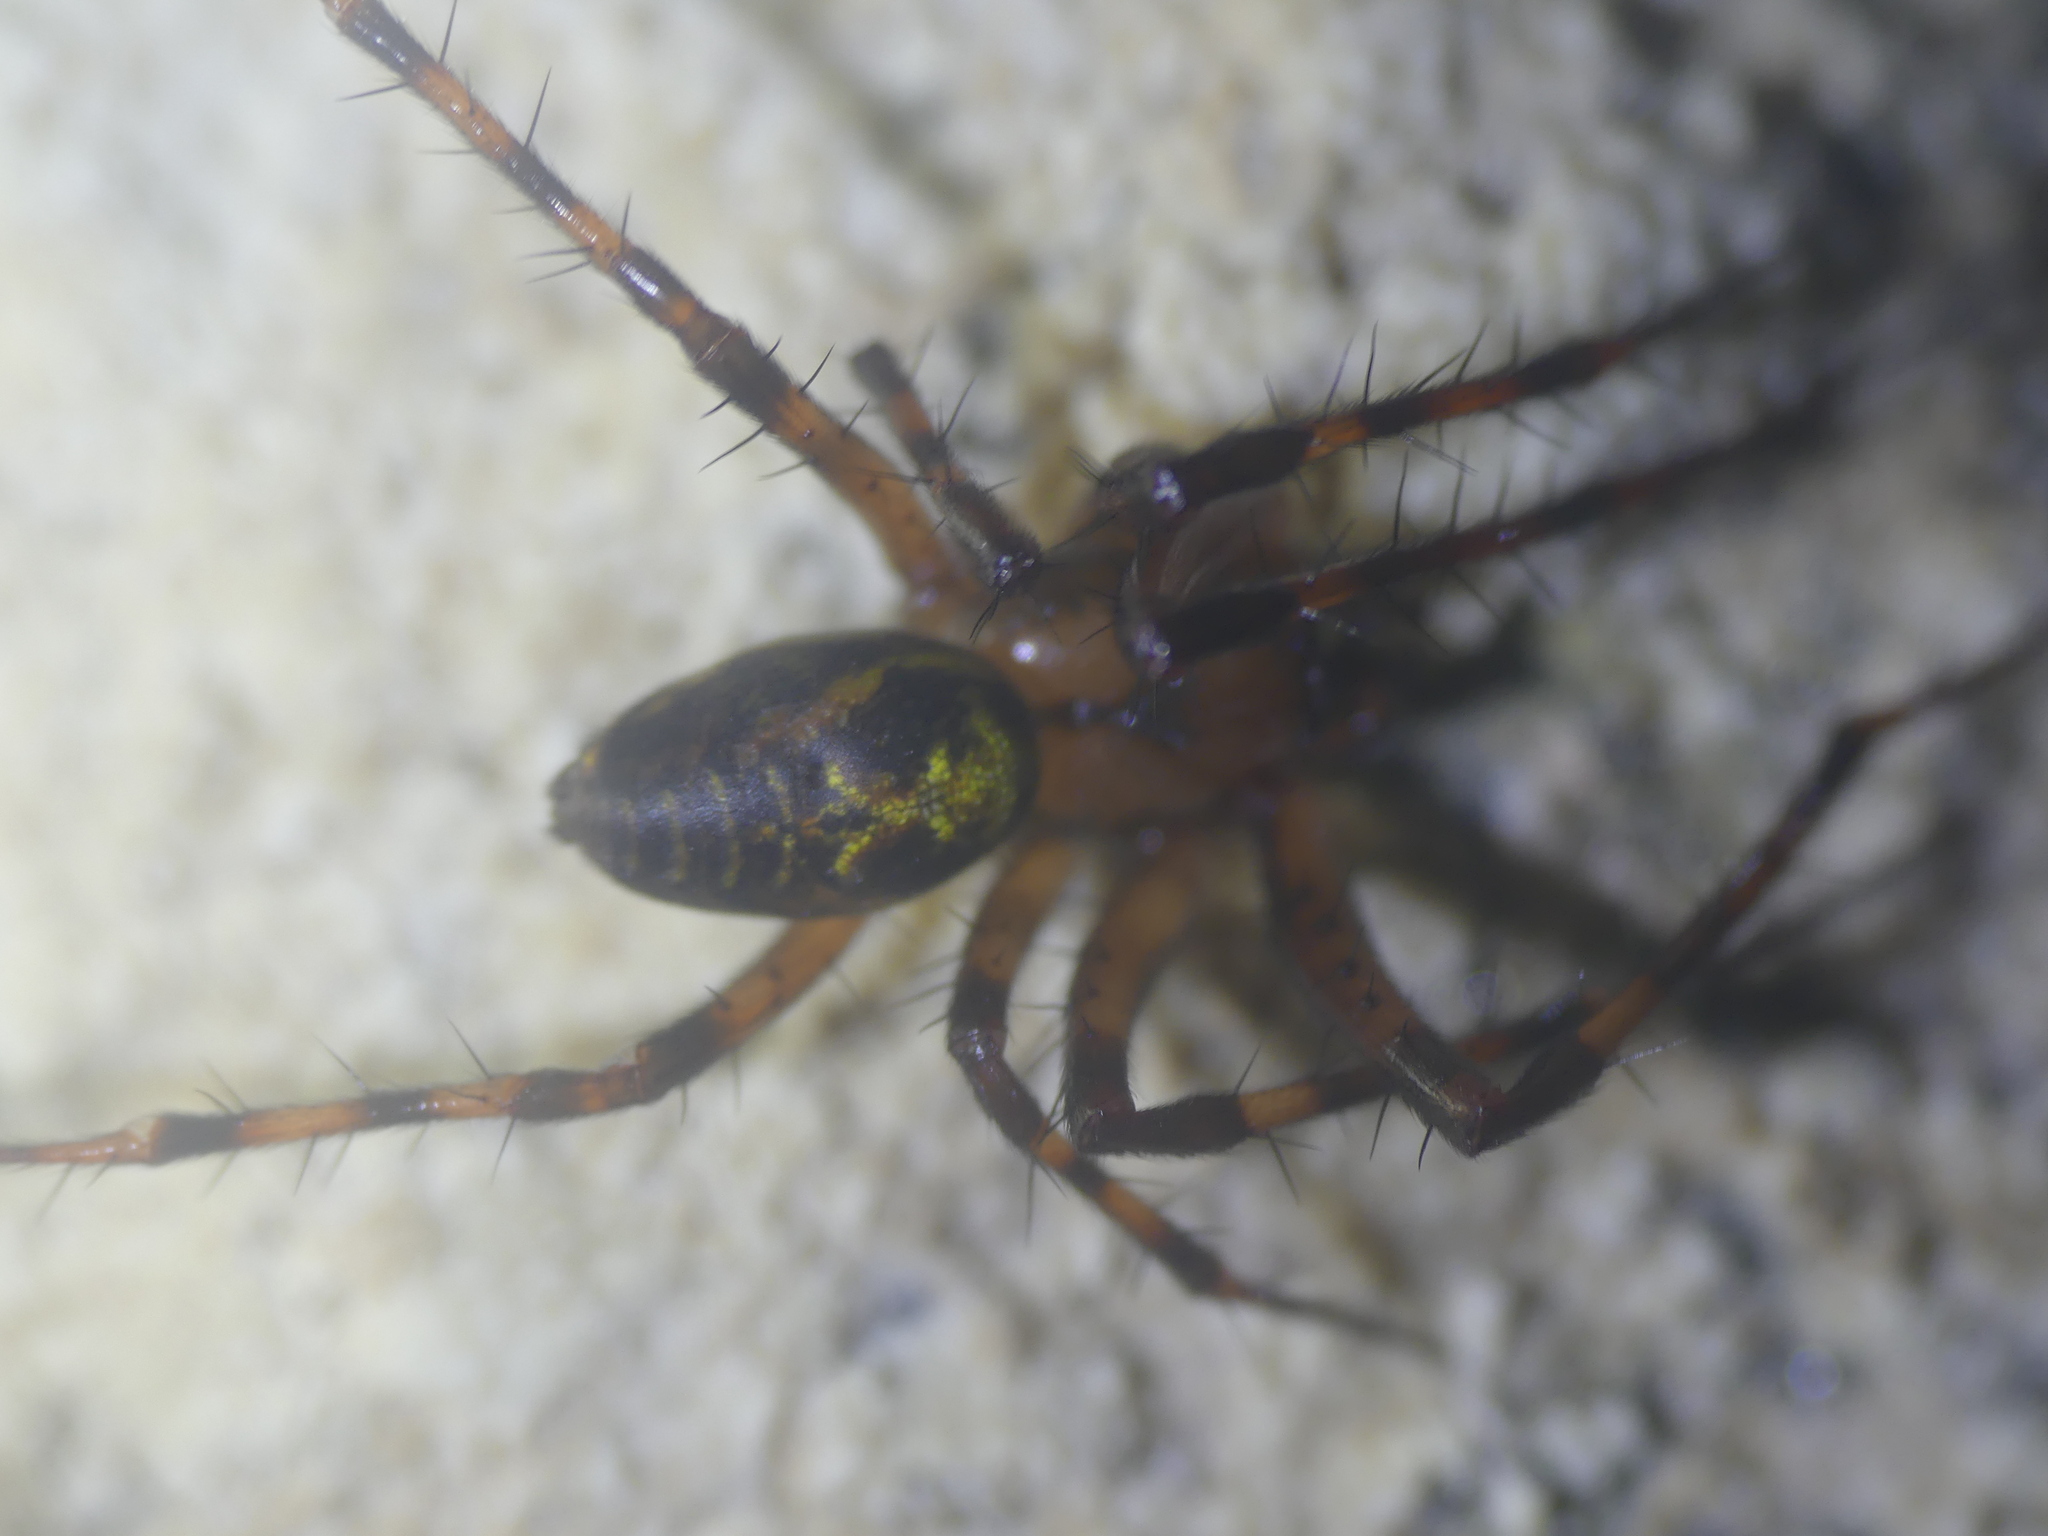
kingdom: Animalia
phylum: Arthropoda
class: Arachnida
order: Araneae
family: Tetragnathidae
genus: Meta
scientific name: Meta menardi
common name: Cave spider
